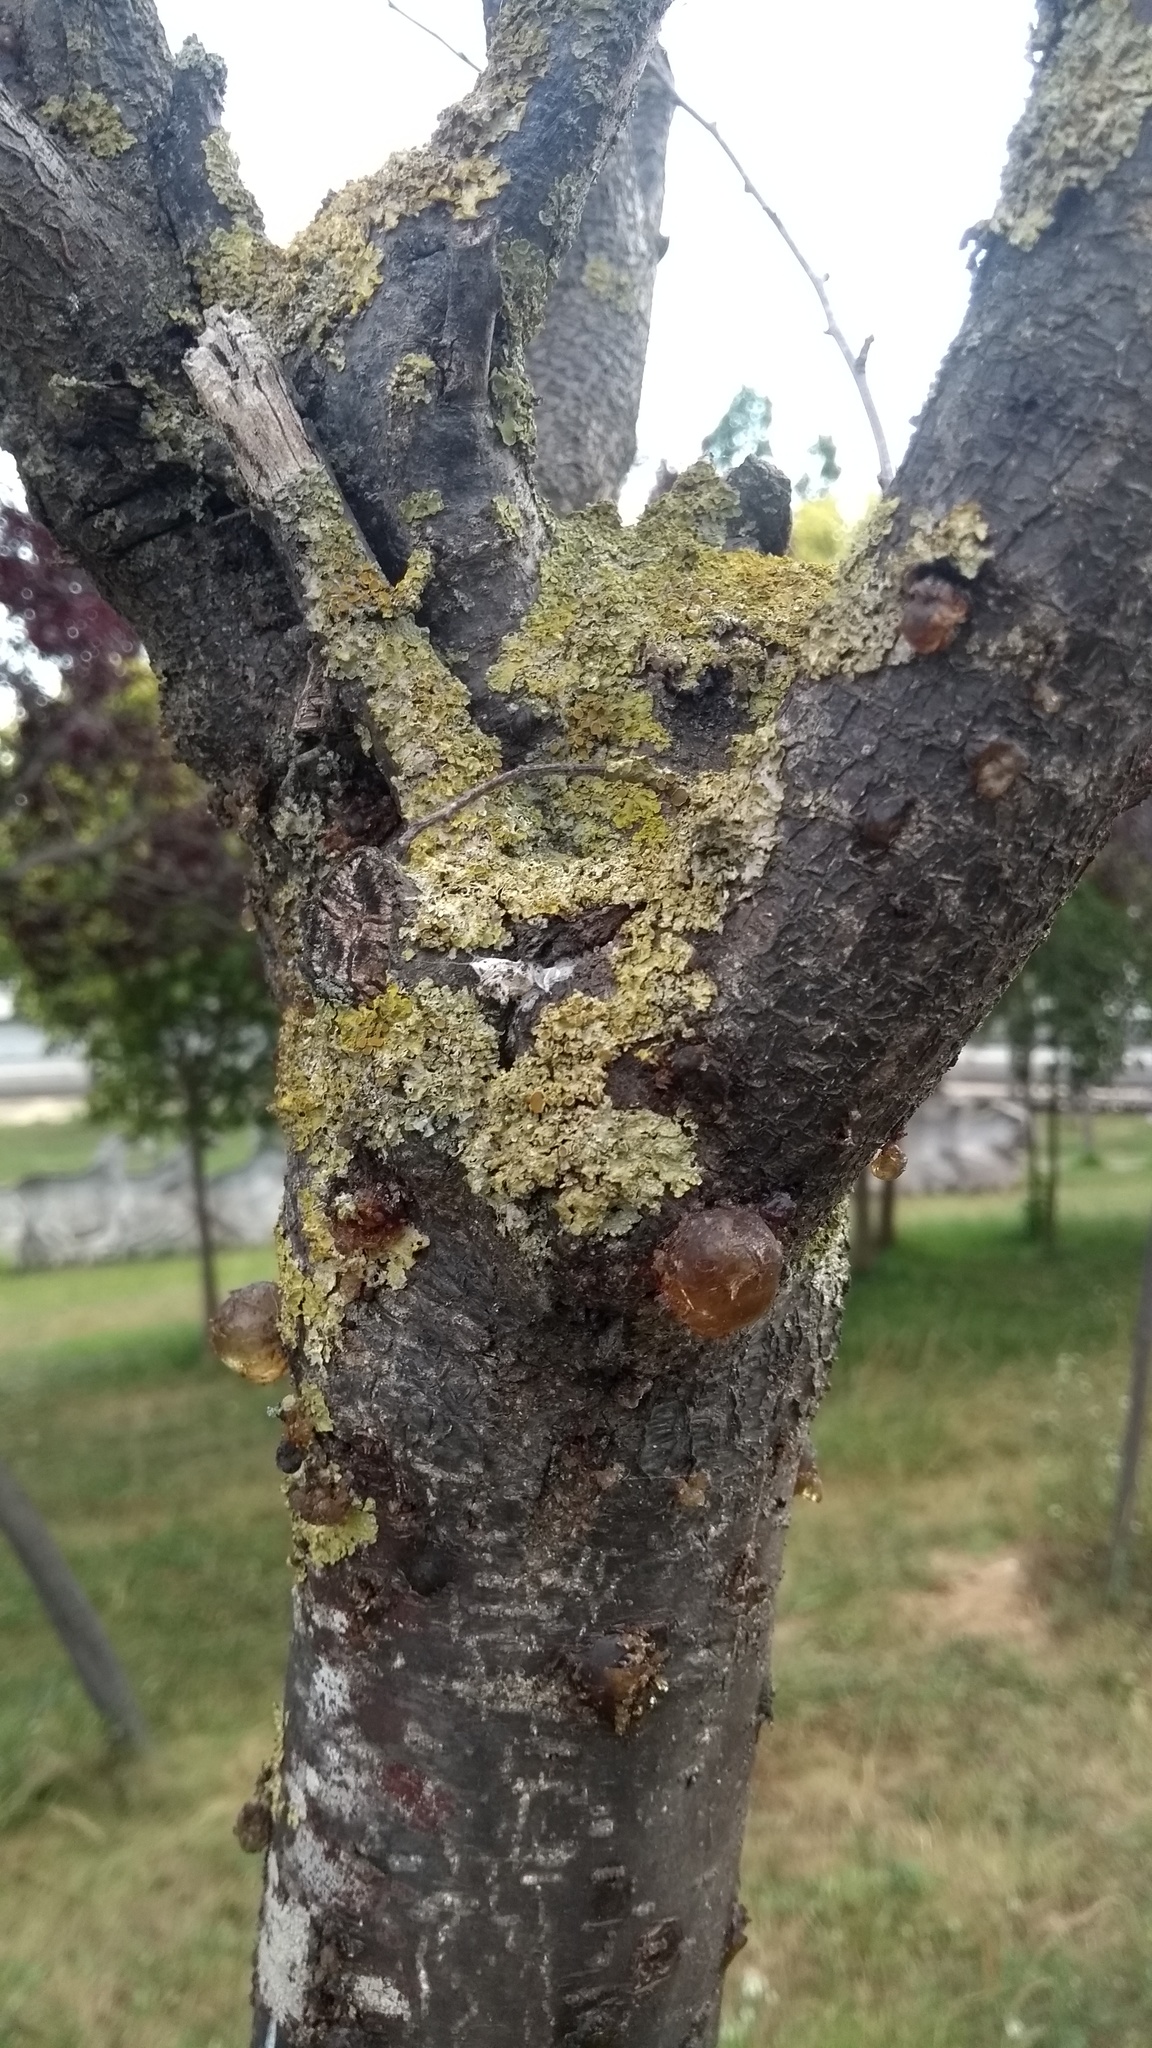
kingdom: Fungi
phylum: Ascomycota
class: Lecanoromycetes
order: Teloschistales
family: Teloschistaceae
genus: Xanthoria
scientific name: Xanthoria parietina
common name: Common orange lichen
